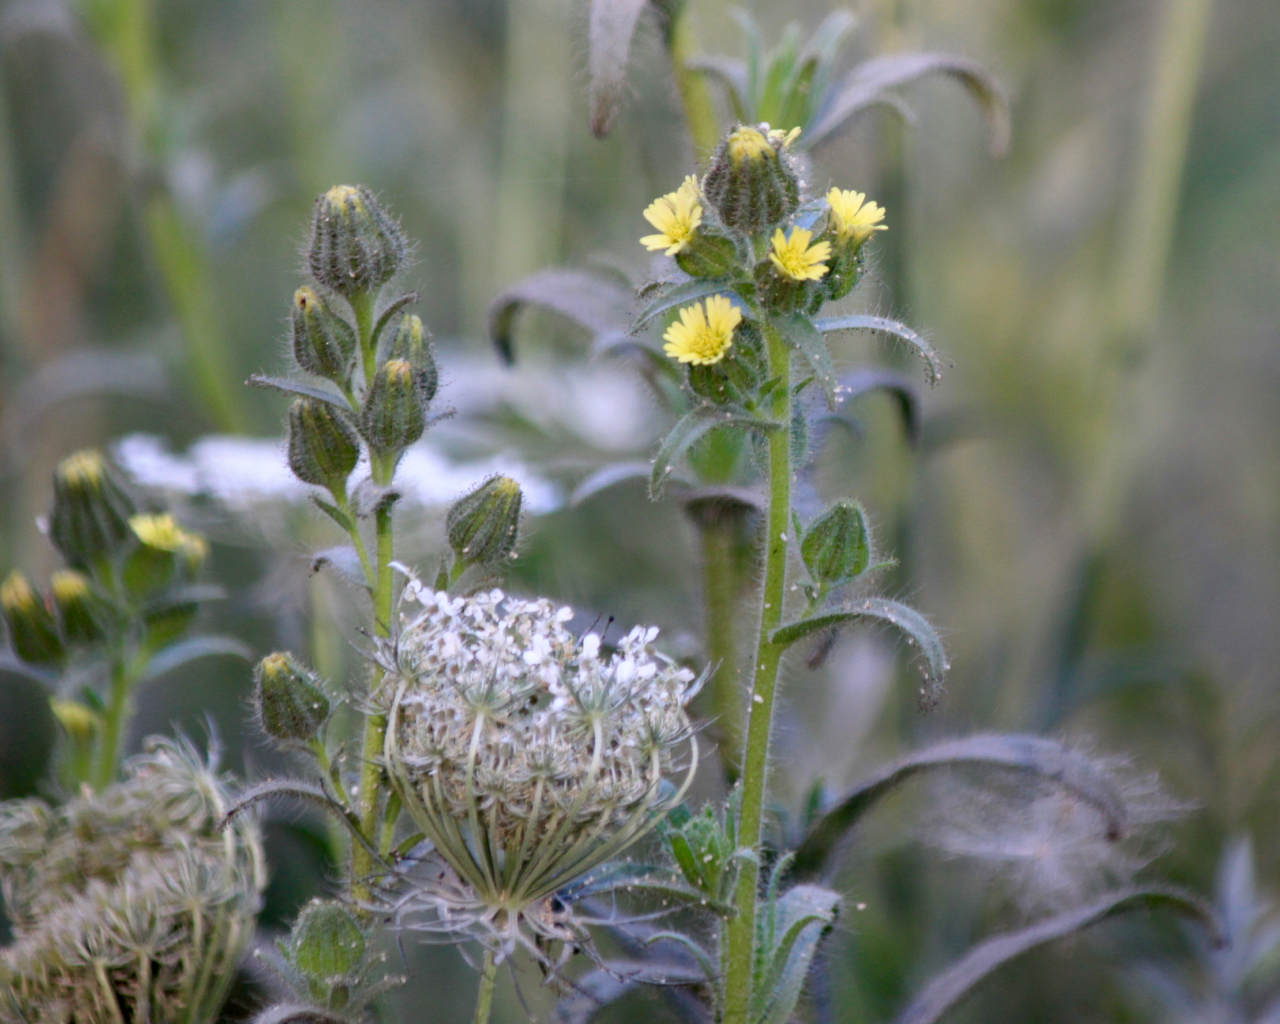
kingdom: Plantae
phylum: Tracheophyta
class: Magnoliopsida
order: Asterales
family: Asteraceae
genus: Madia
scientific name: Madia sativa
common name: Coast tarweed
